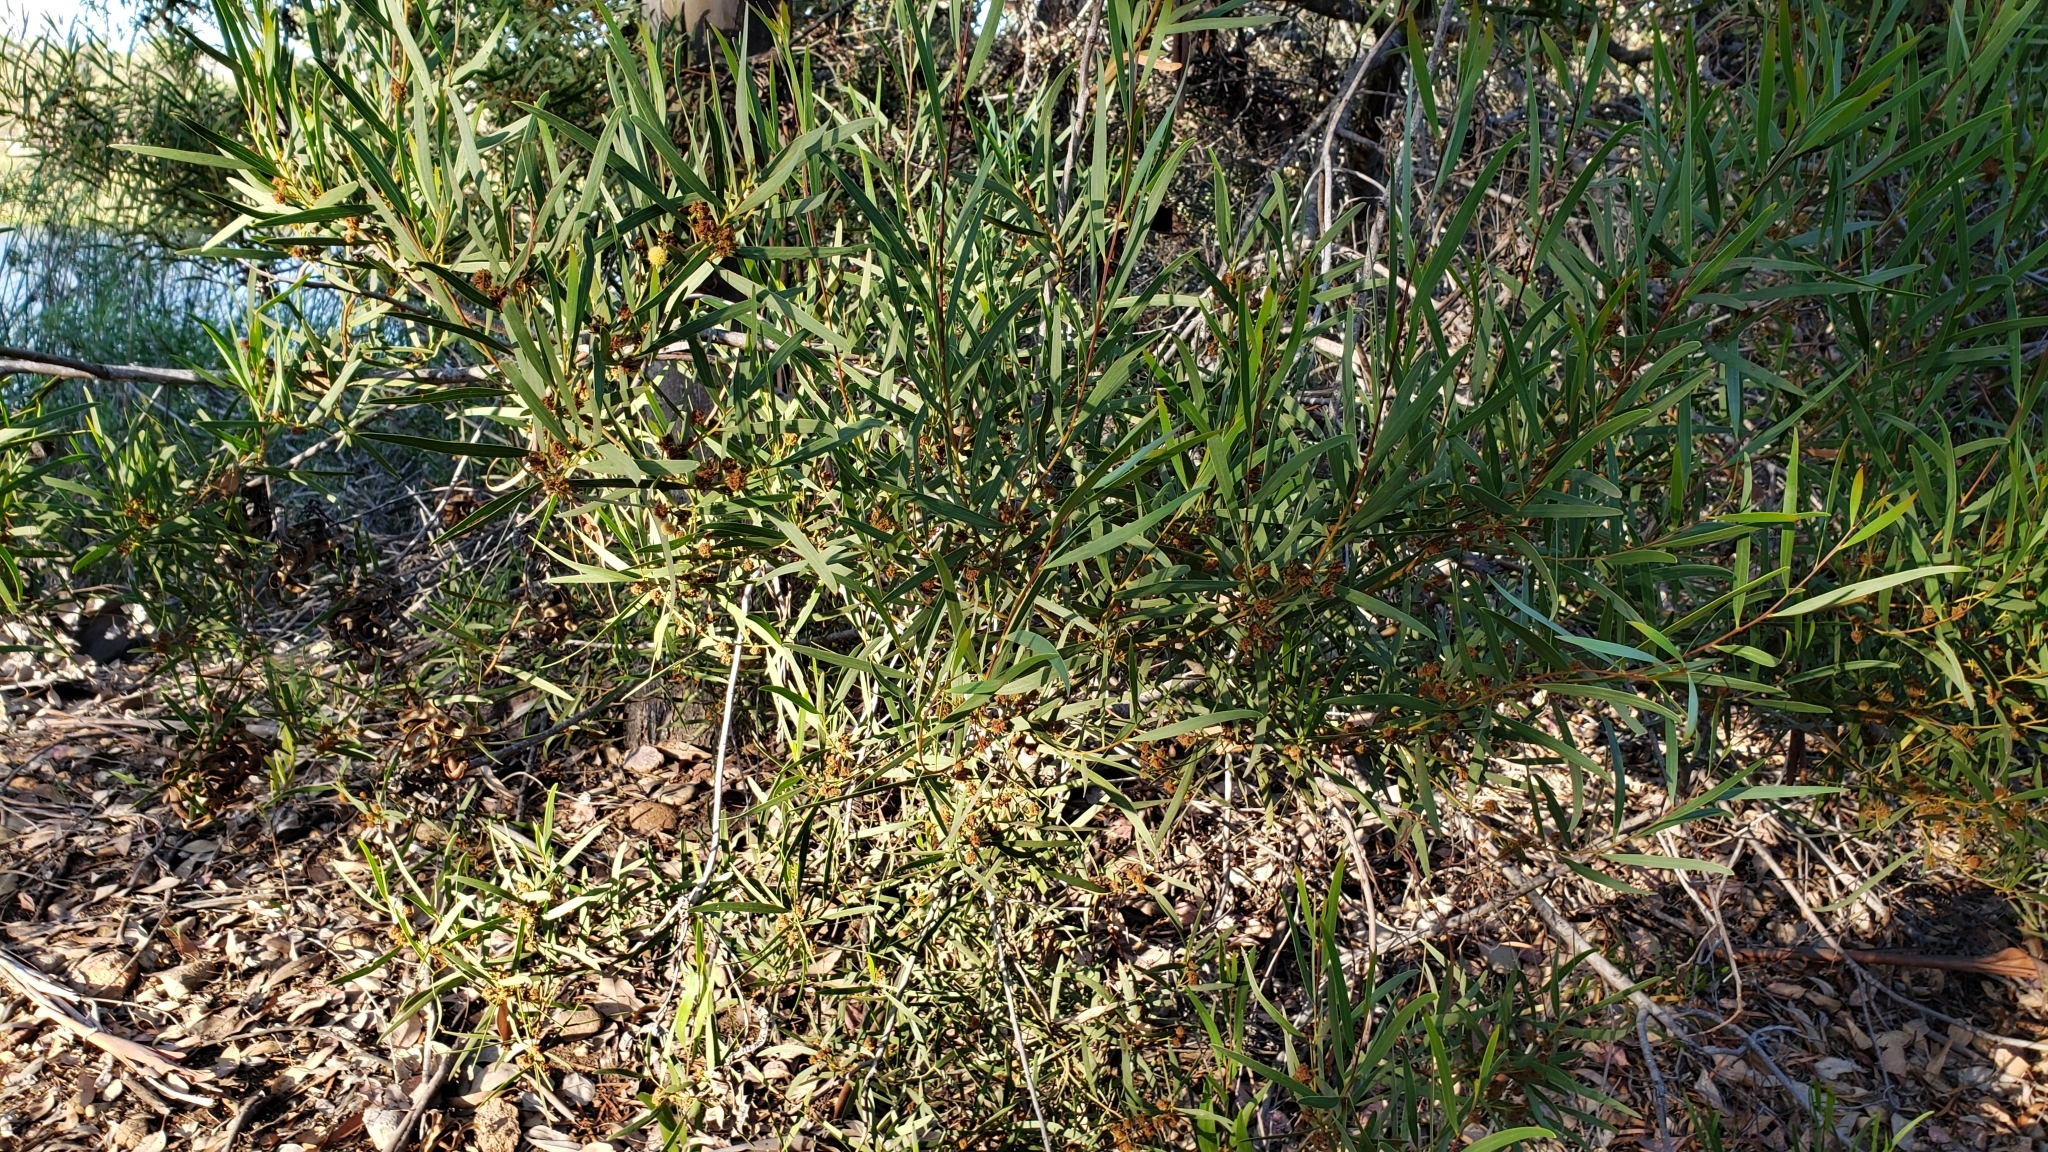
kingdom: Plantae
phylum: Tracheophyta
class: Magnoliopsida
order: Fabales
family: Fabaceae
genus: Acacia
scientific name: Acacia cyclops
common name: Coastal wattle
